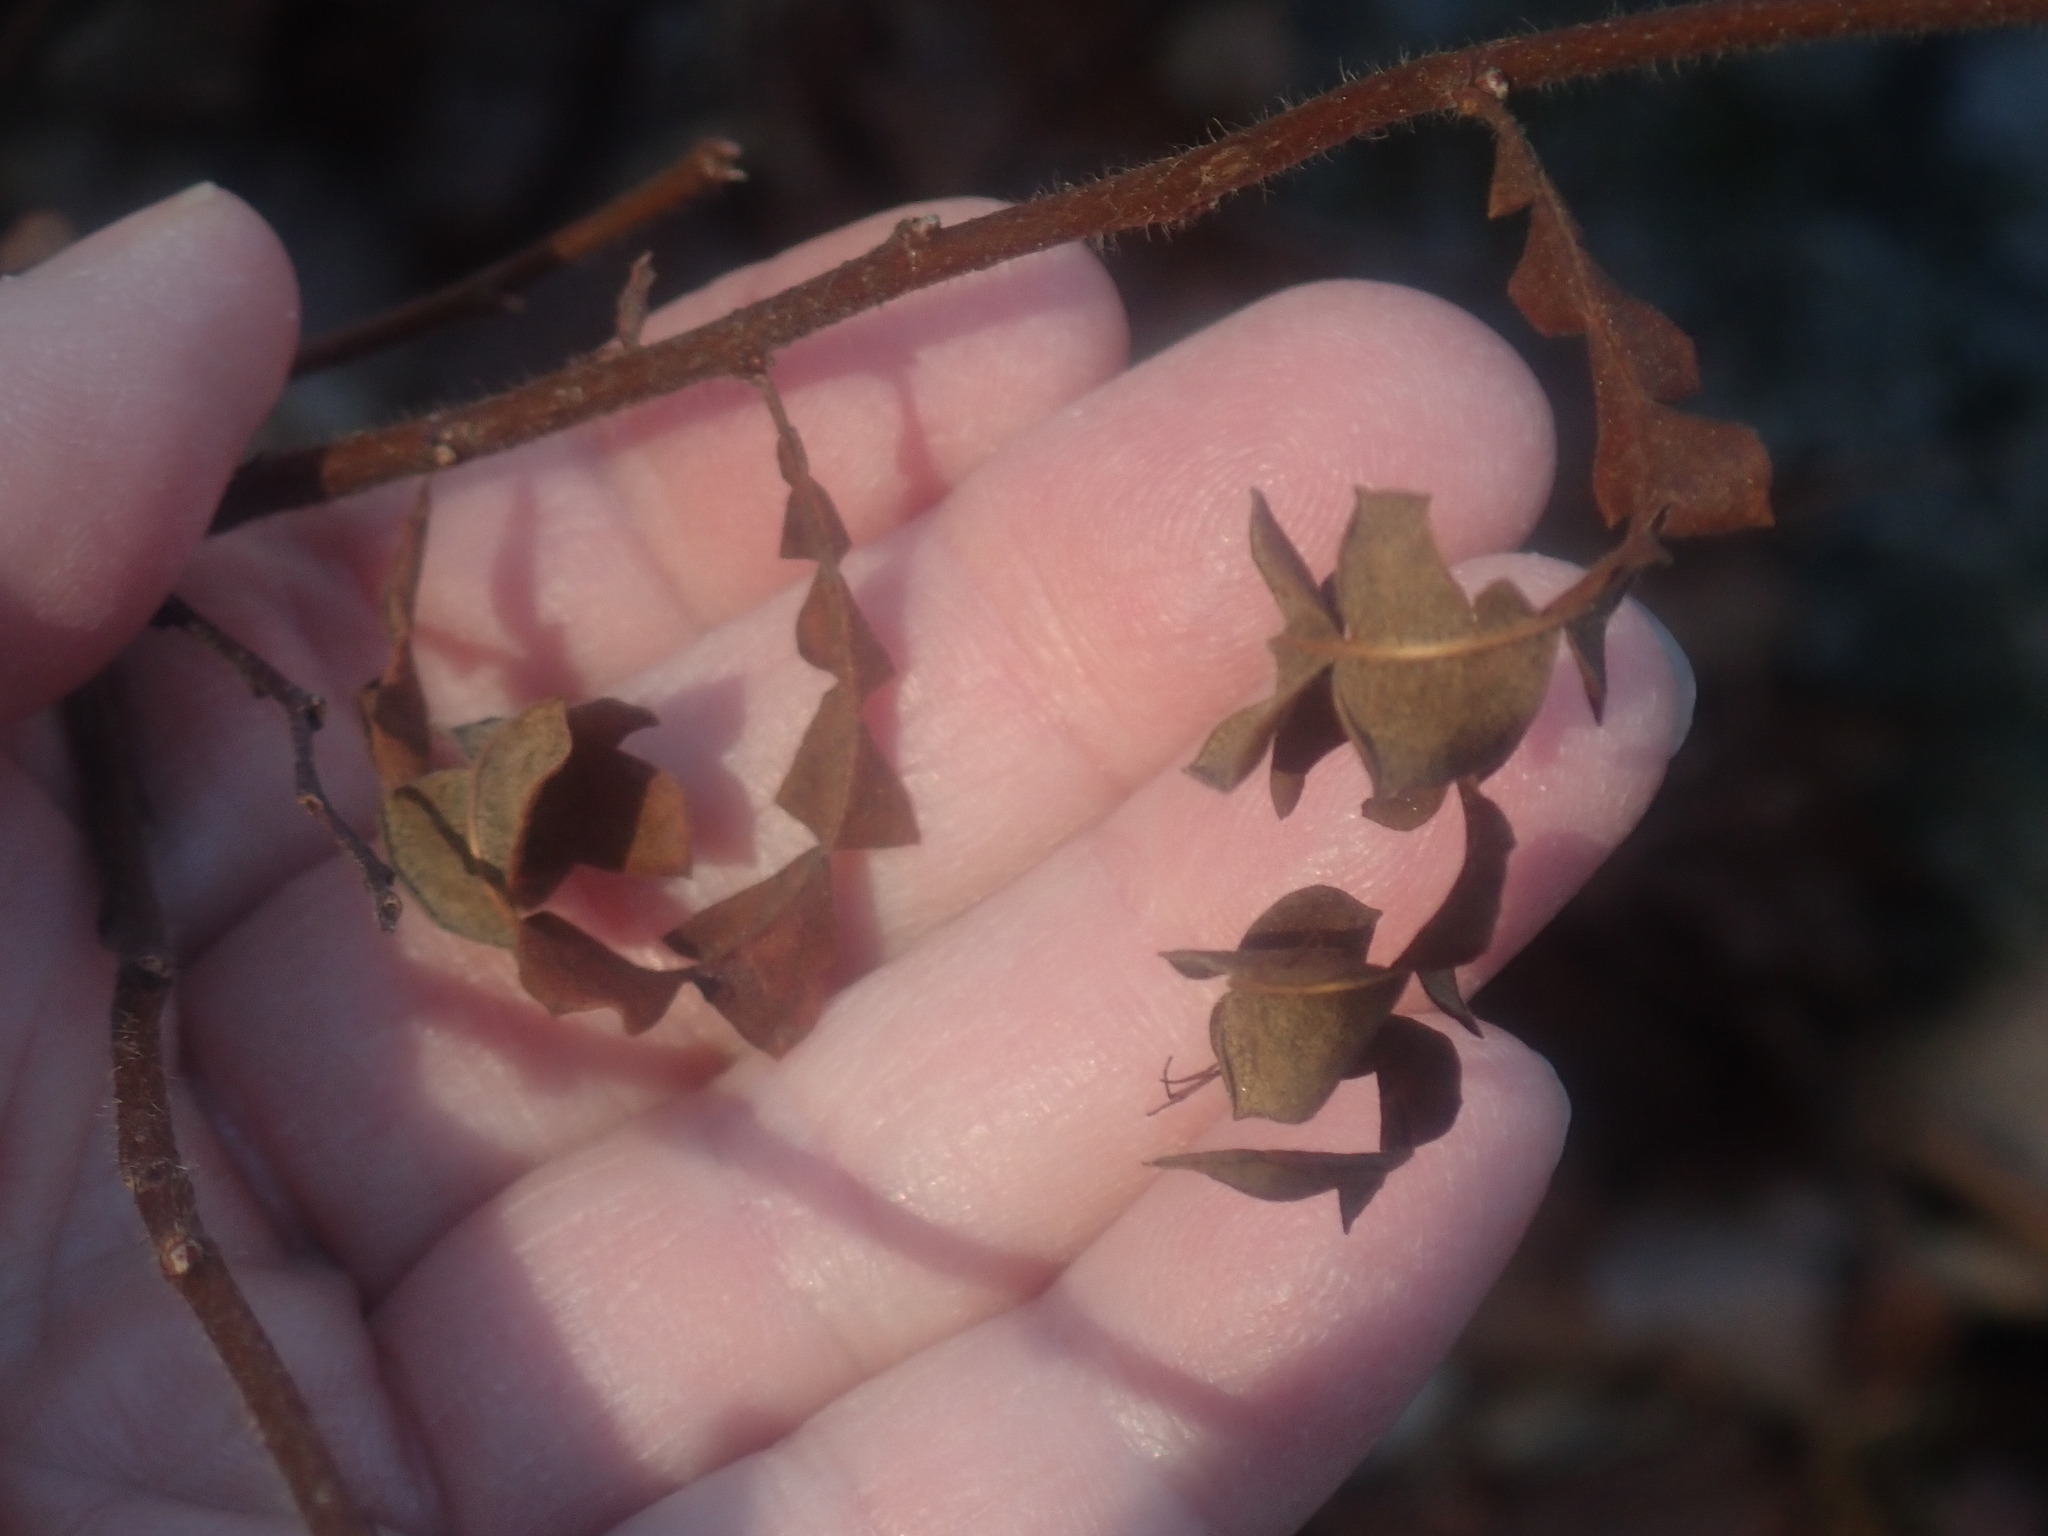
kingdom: Plantae
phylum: Tracheophyta
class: Magnoliopsida
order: Fagales
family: Myricaceae
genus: Comptonia
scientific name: Comptonia peregrina
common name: Sweet-fern
